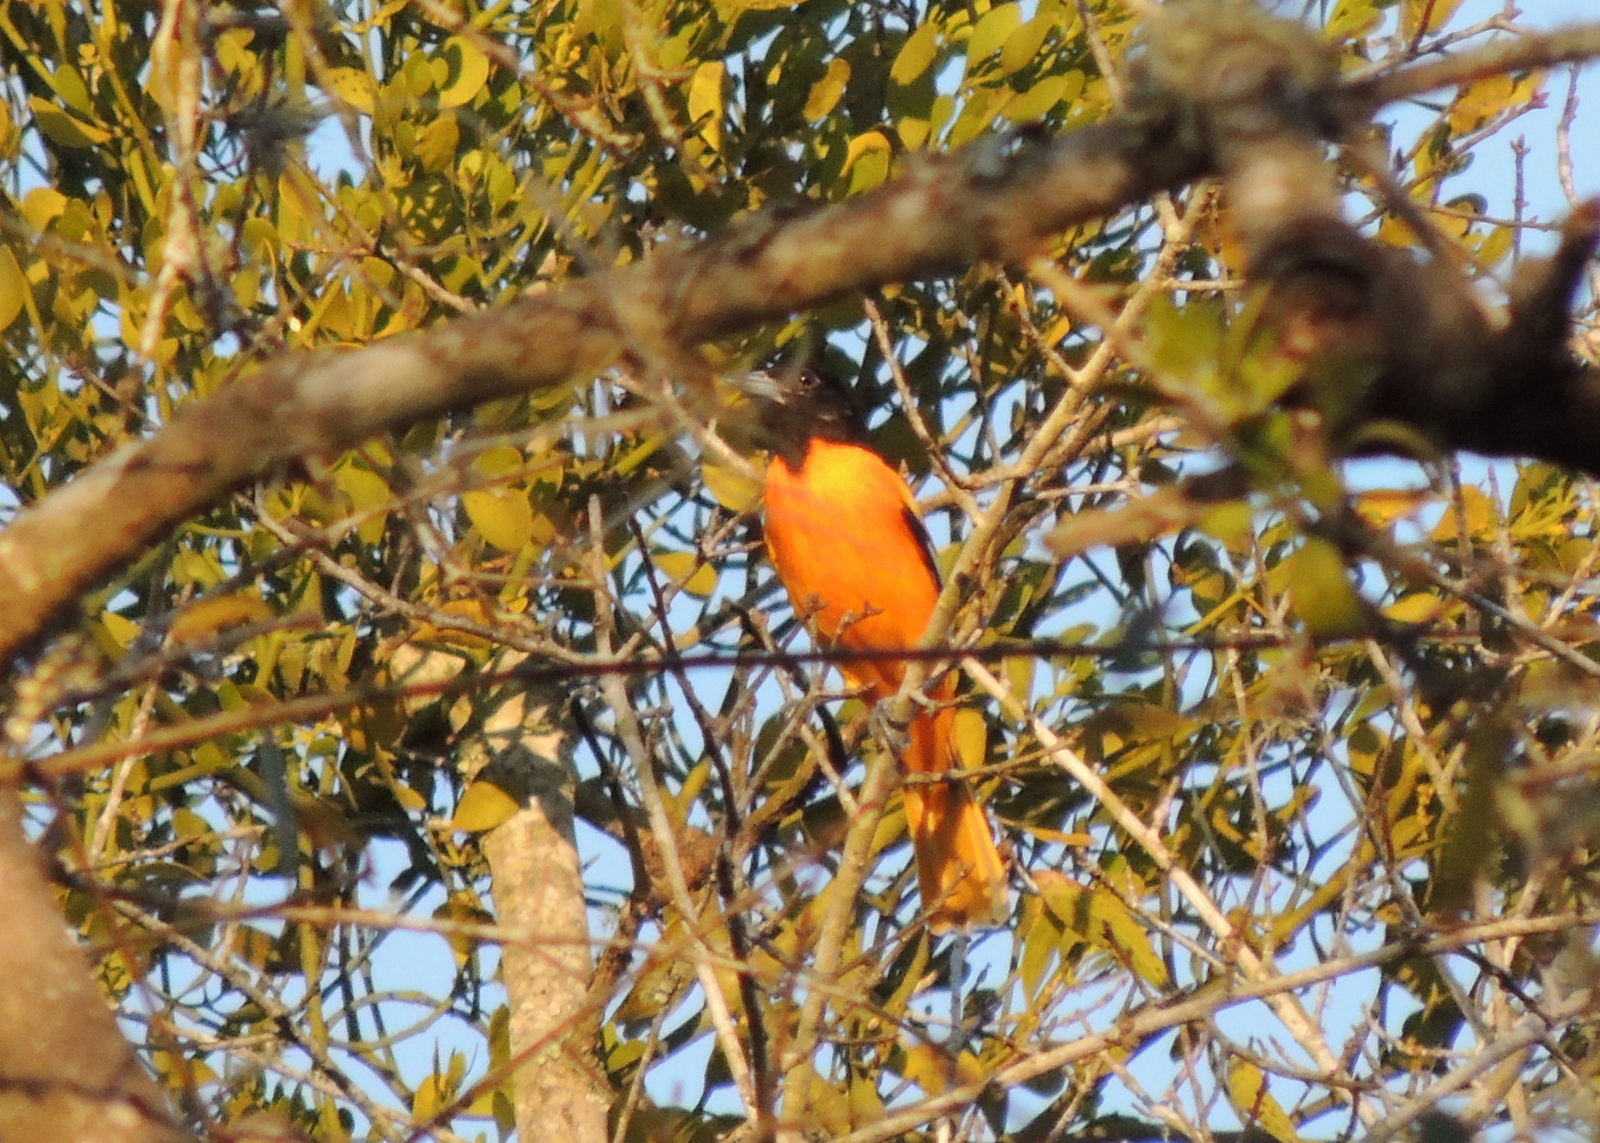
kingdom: Animalia
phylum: Chordata
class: Aves
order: Passeriformes
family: Icteridae
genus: Icterus
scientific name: Icterus galbula
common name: Baltimore oriole
